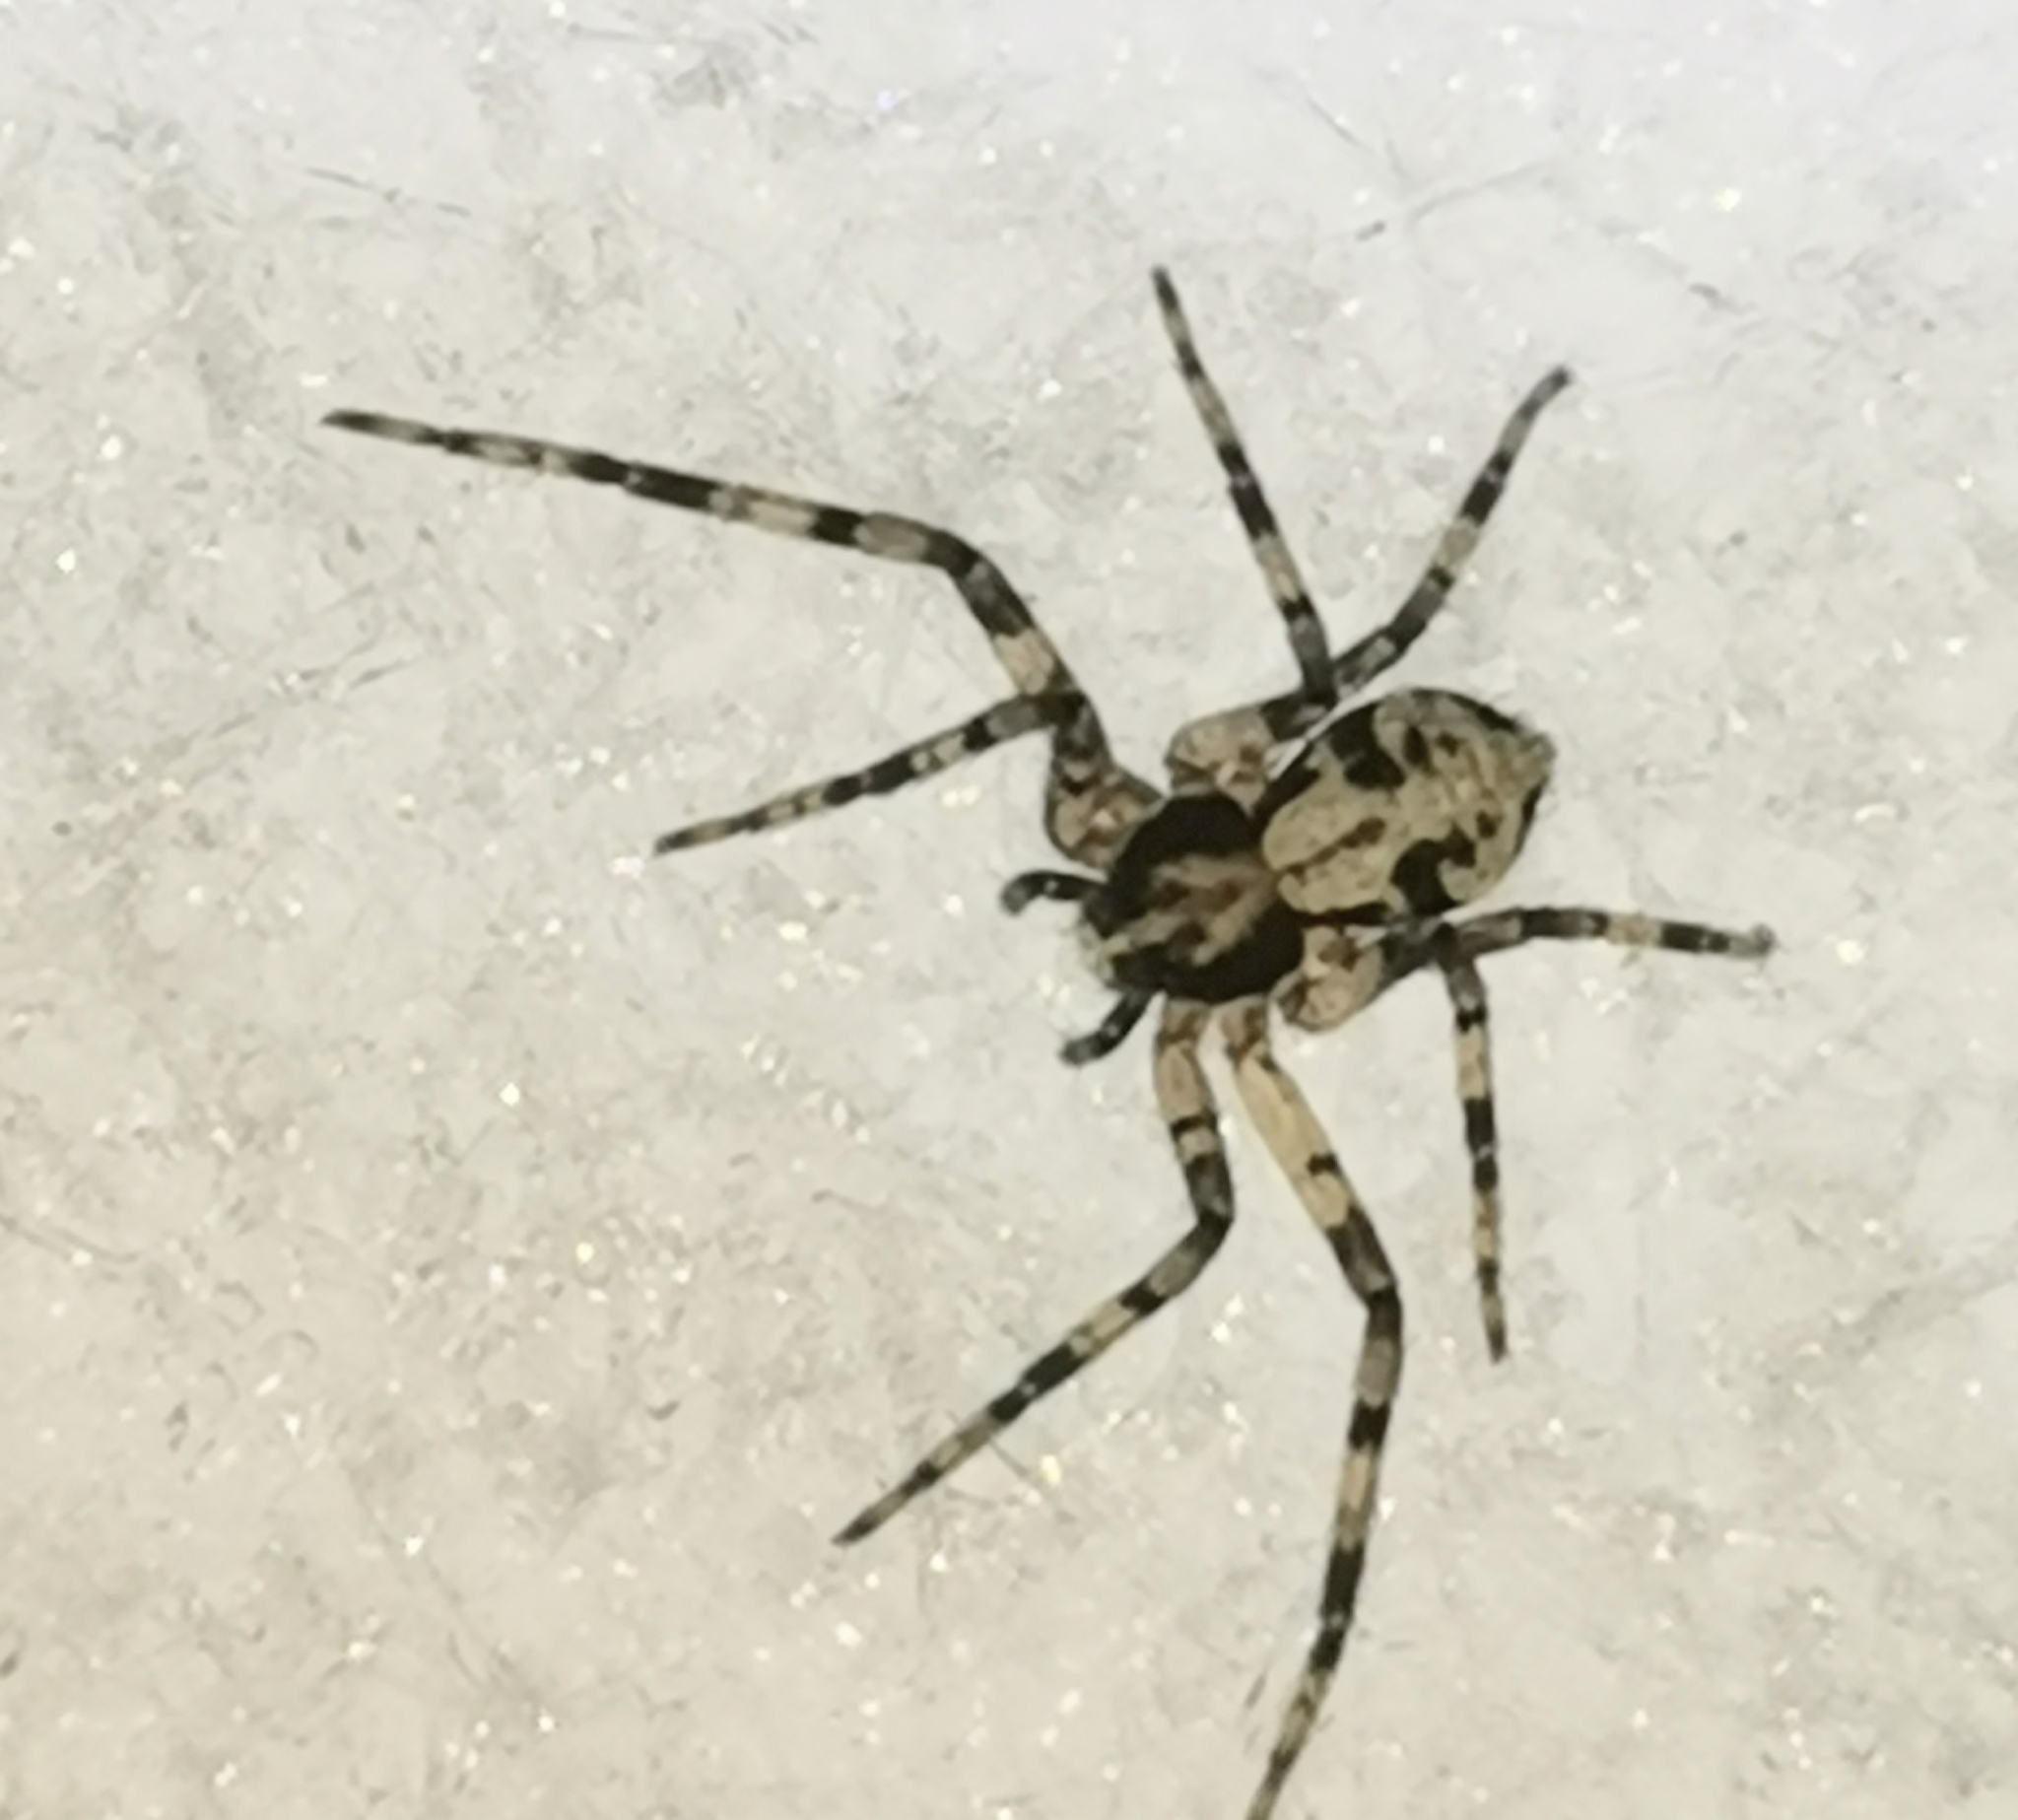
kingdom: Animalia
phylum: Arthropoda
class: Arachnida
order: Araneae
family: Philodromidae
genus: Philodromus
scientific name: Philodromus margaritatus
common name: Lichen running-spider
